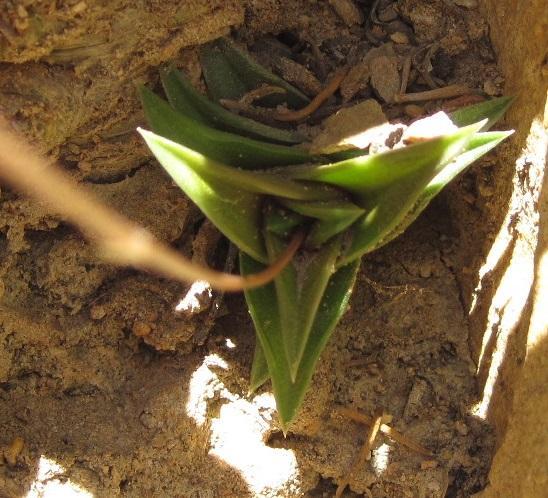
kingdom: Plantae
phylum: Tracheophyta
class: Liliopsida
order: Asparagales
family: Asphodelaceae
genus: Haworthiopsis
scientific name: Haworthiopsis viscosa
